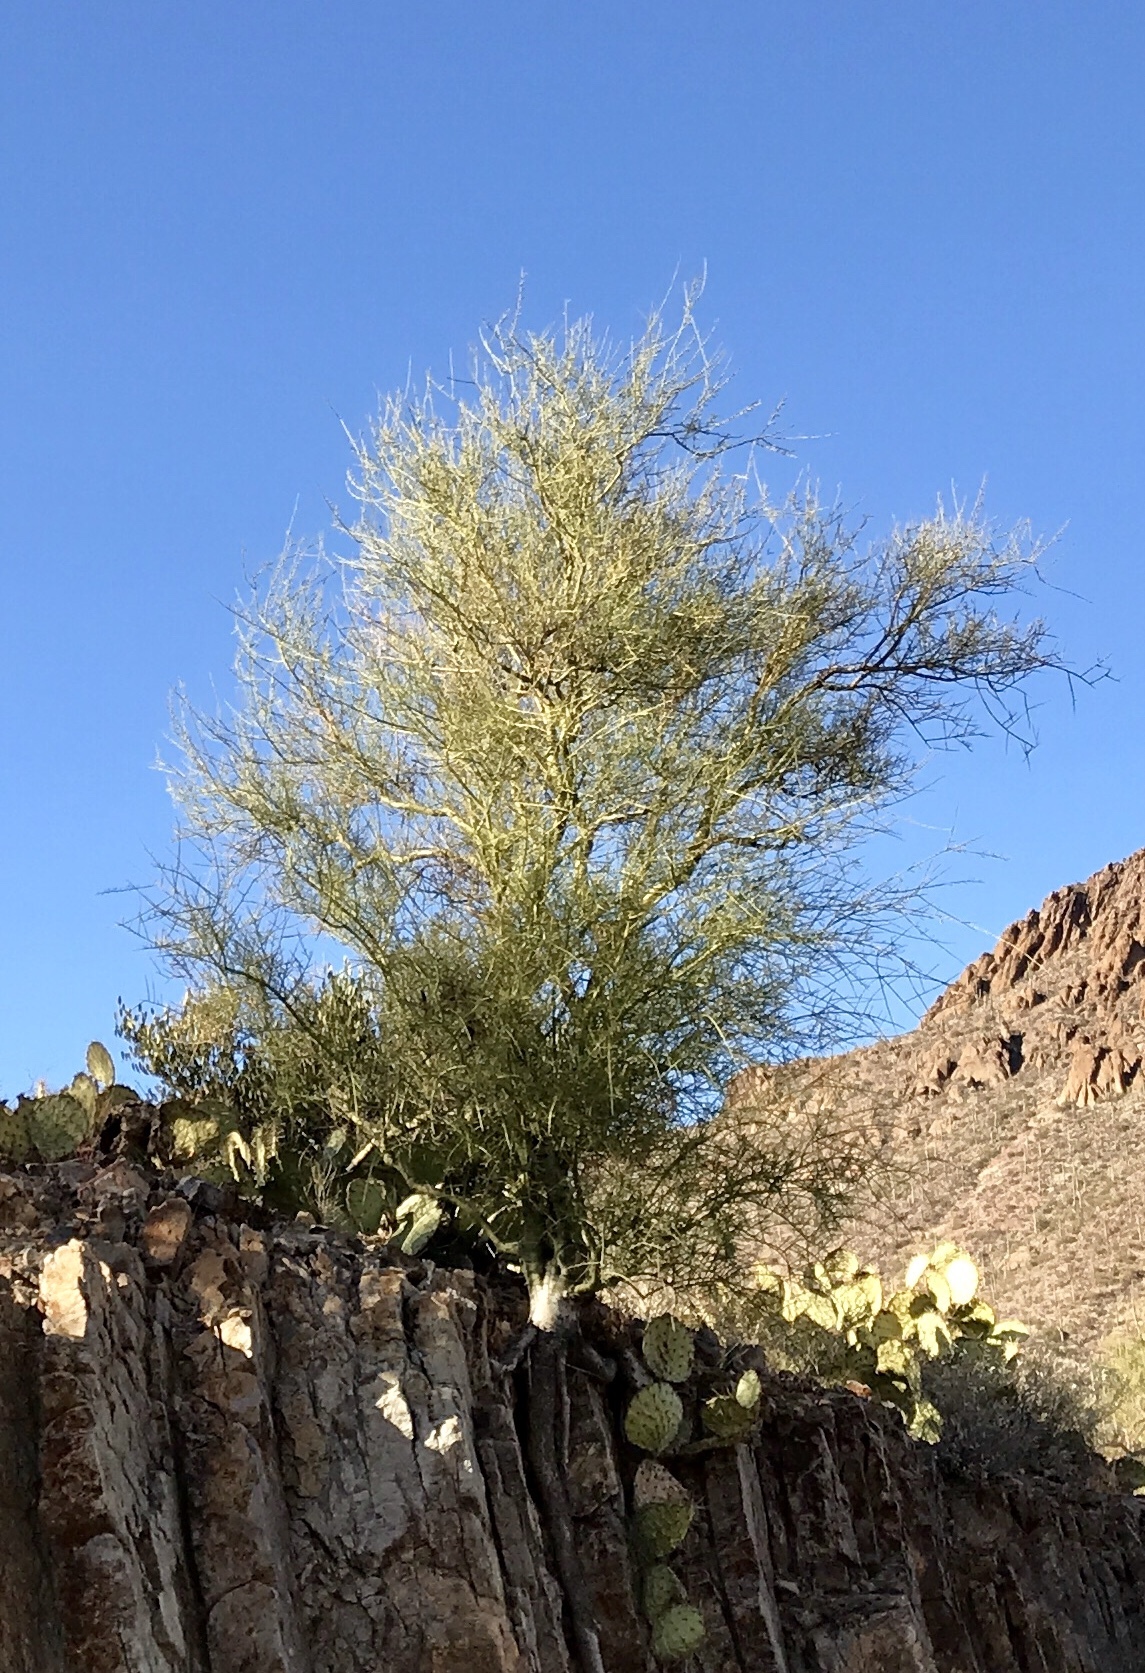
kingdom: Plantae
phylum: Tracheophyta
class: Magnoliopsida
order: Fabales
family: Fabaceae
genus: Parkinsonia
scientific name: Parkinsonia microphylla
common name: Yellow paloverde
